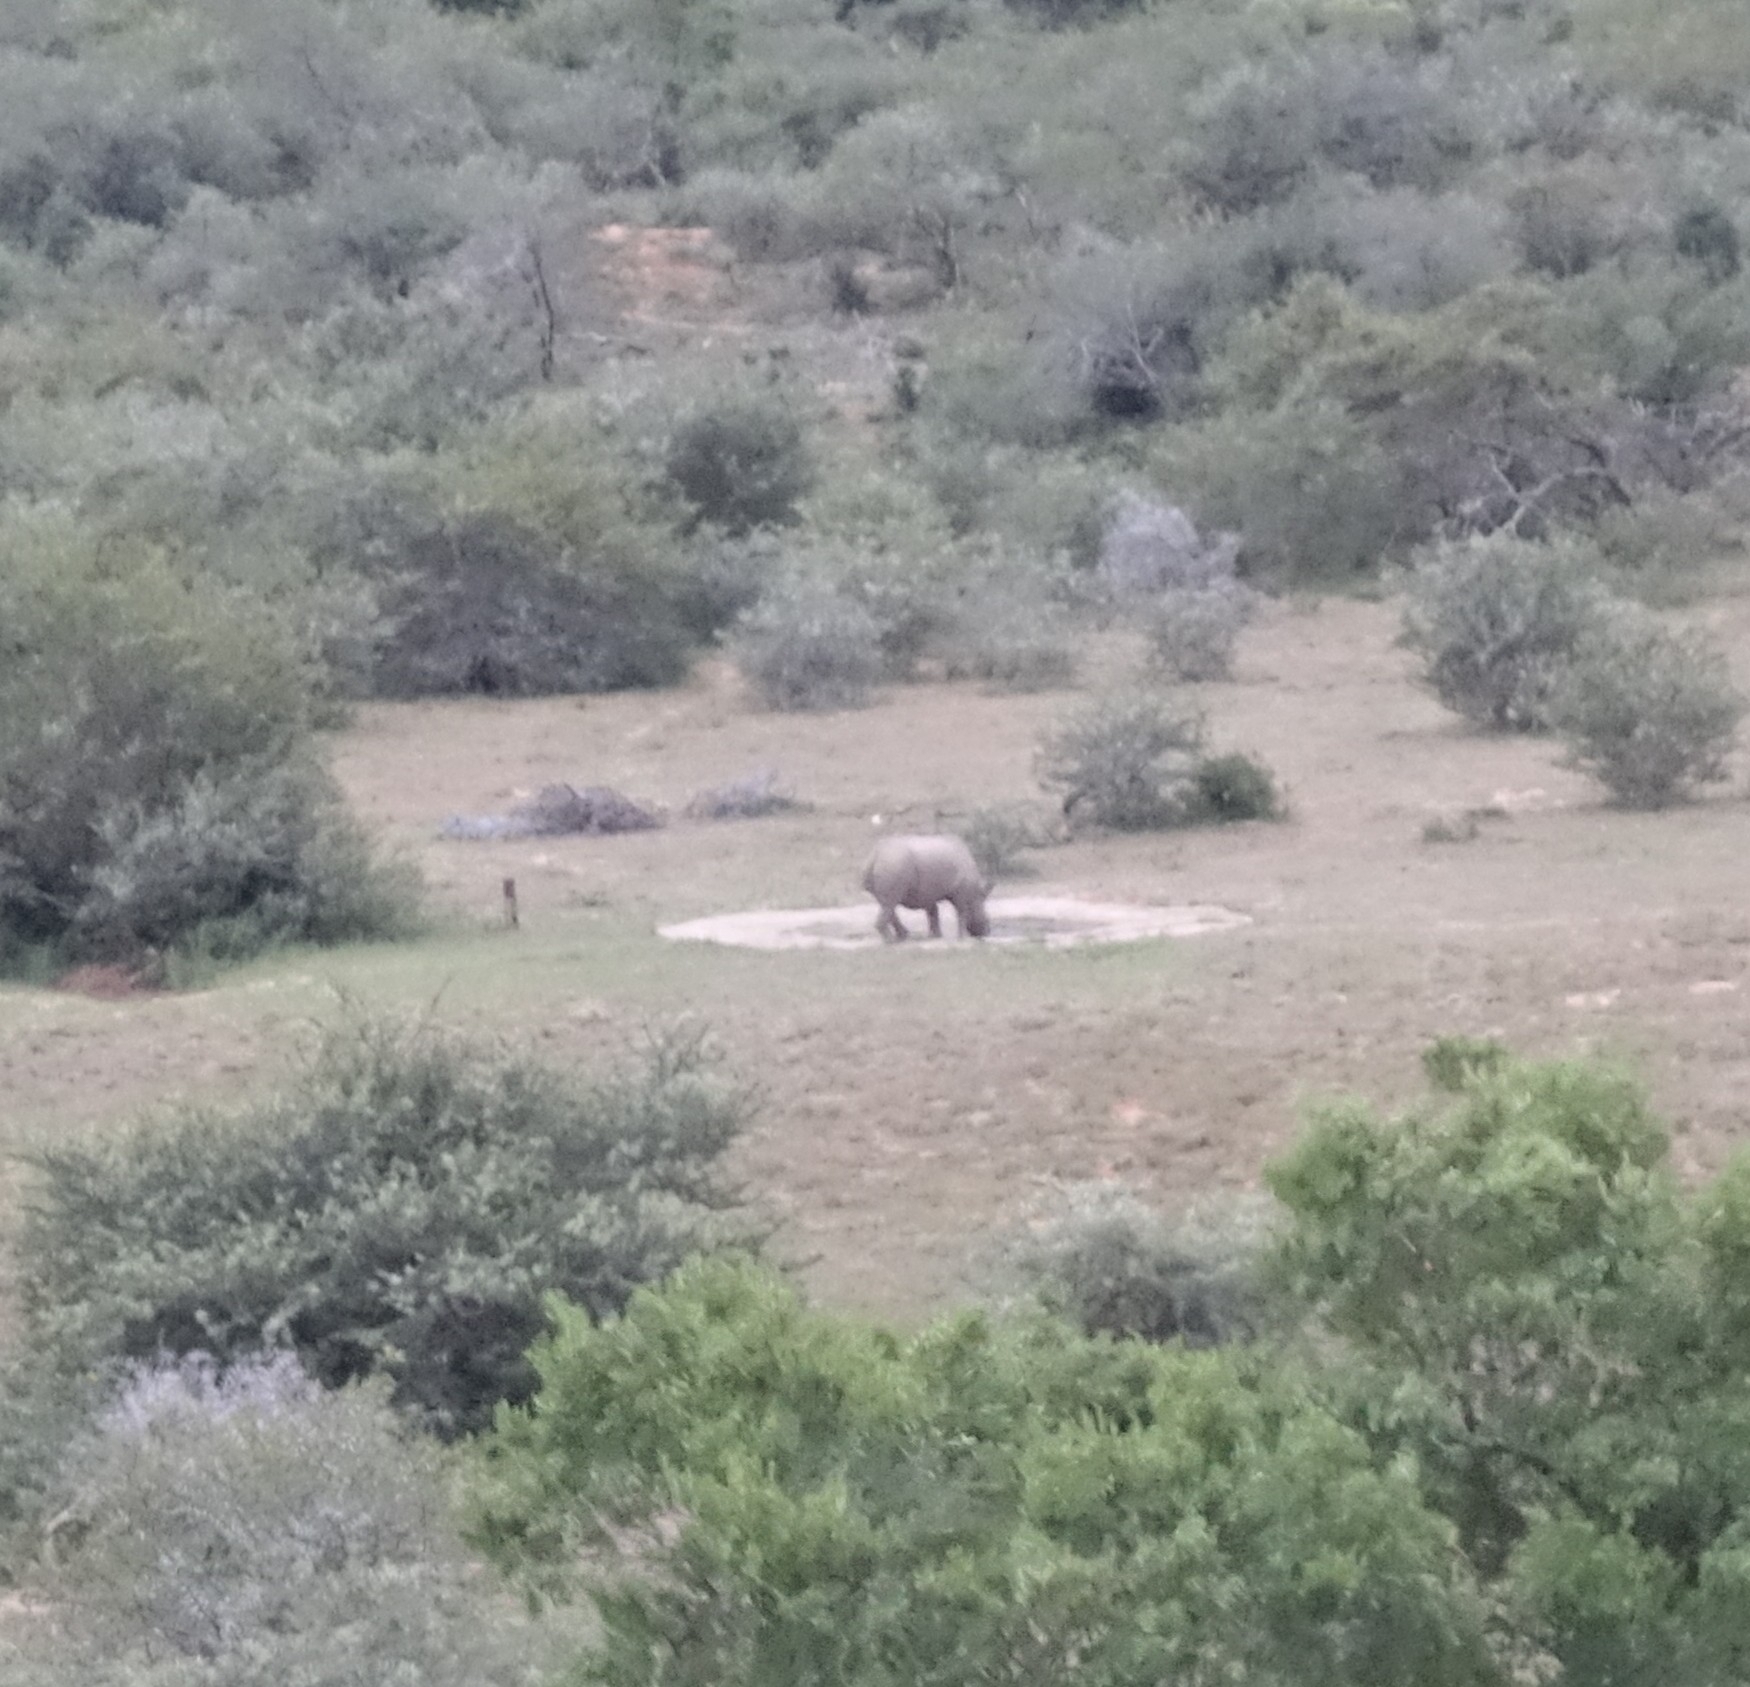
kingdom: Animalia
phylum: Chordata
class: Mammalia
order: Perissodactyla
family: Rhinocerotidae
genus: Diceros
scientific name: Diceros bicornis
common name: Black rhinoceros
